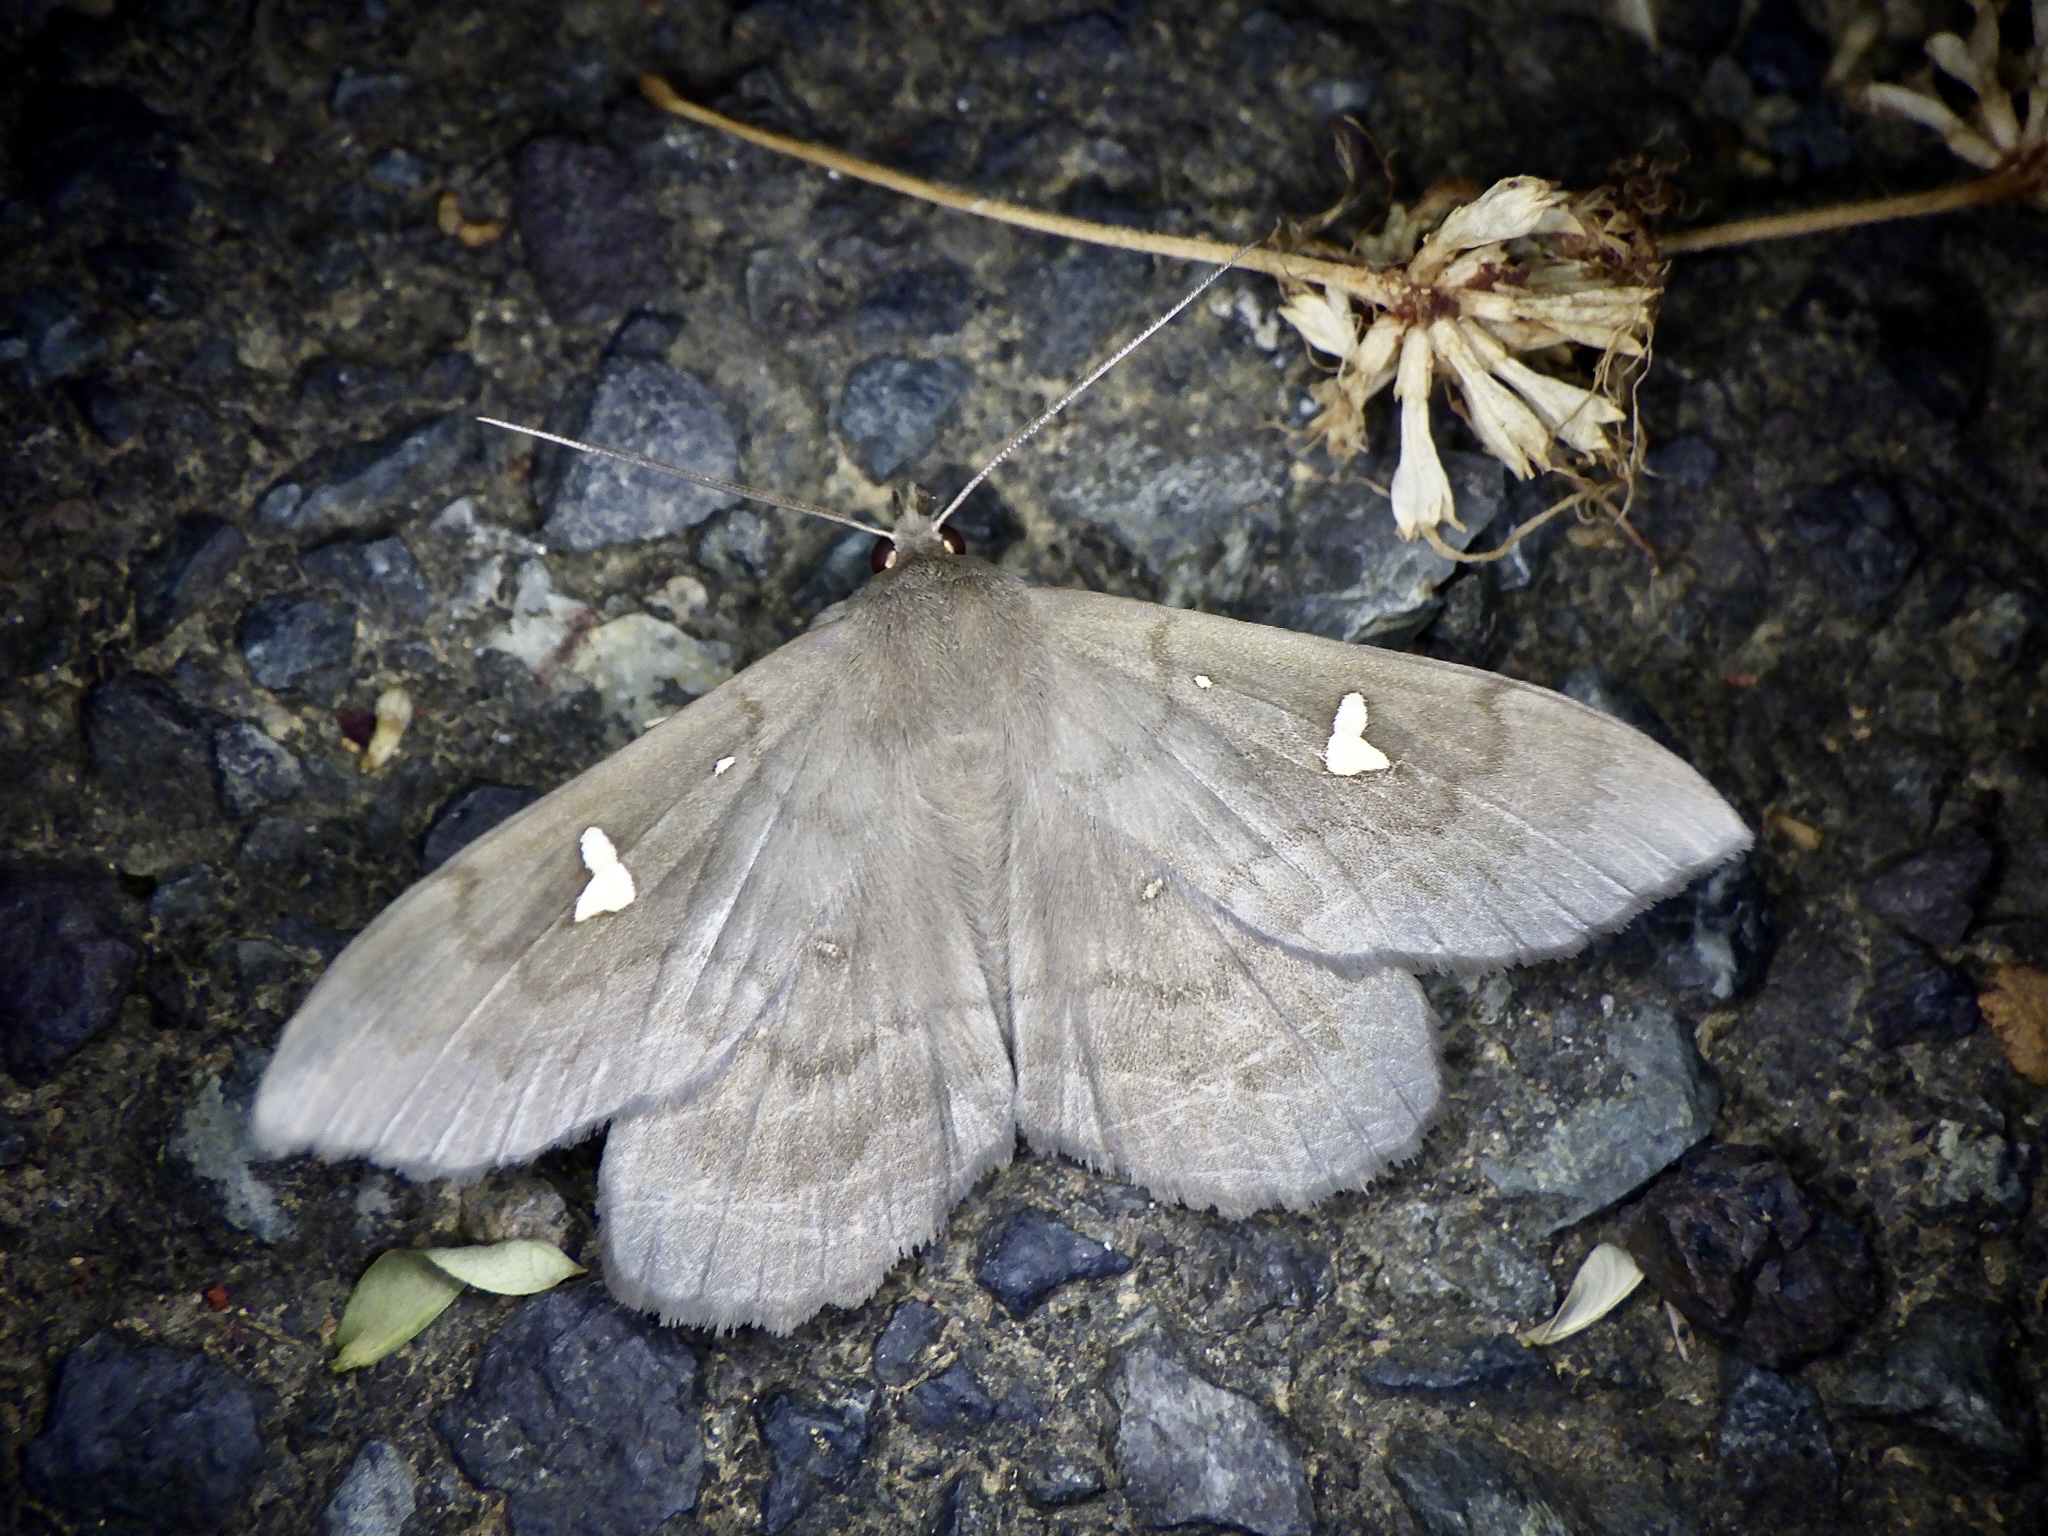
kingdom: Animalia
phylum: Arthropoda
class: Insecta
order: Lepidoptera
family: Erebidae
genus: Edessena
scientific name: Edessena hamada
